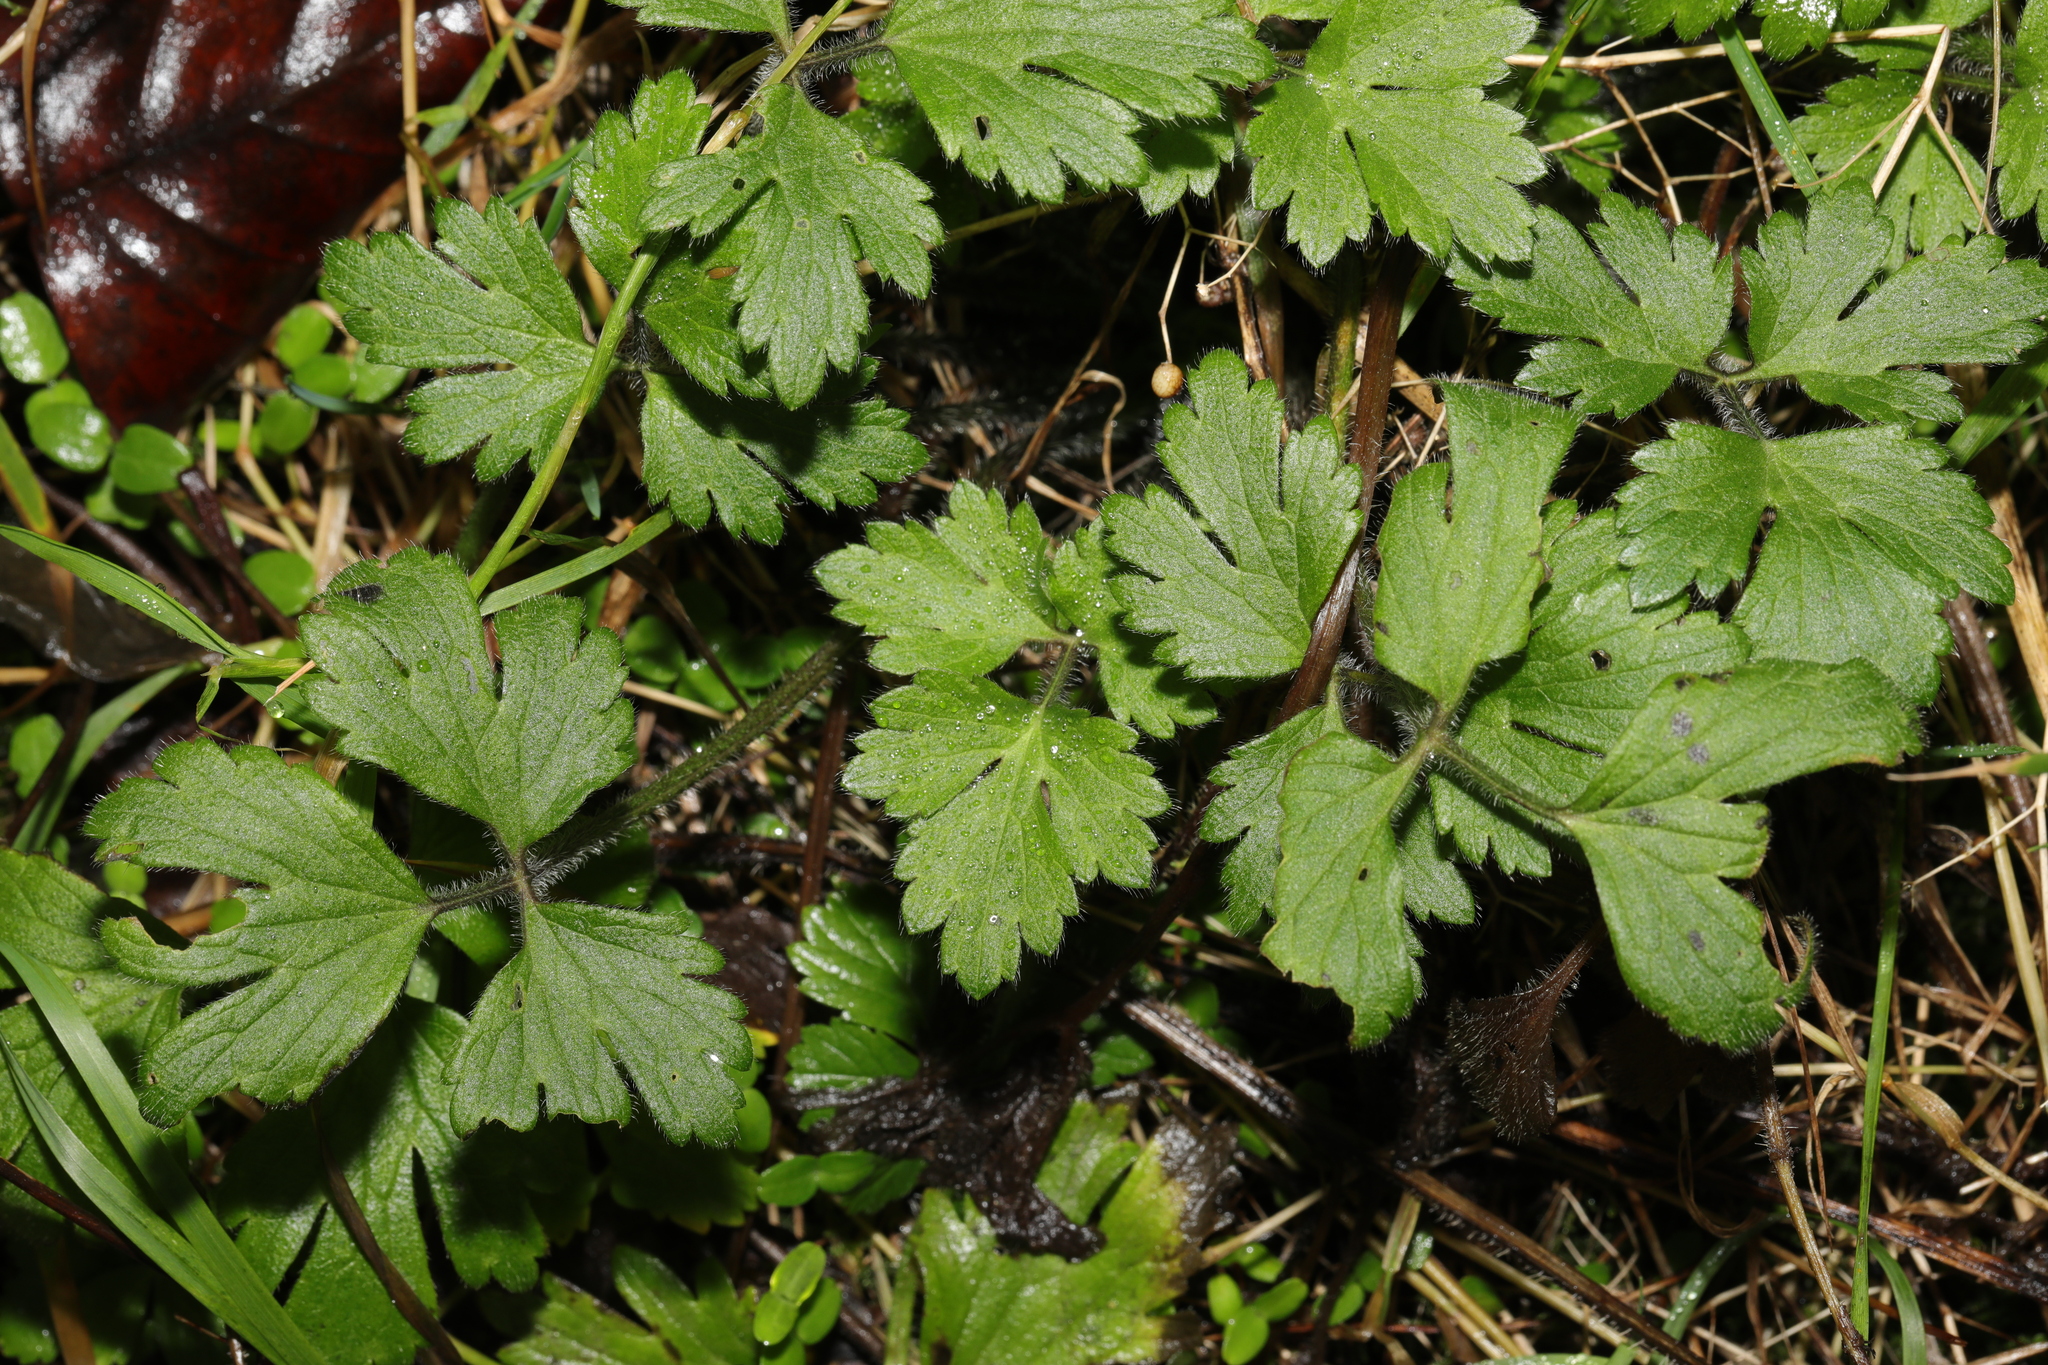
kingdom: Plantae
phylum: Tracheophyta
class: Magnoliopsida
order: Ranunculales
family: Ranunculaceae
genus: Ranunculus
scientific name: Ranunculus repens
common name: Creeping buttercup
